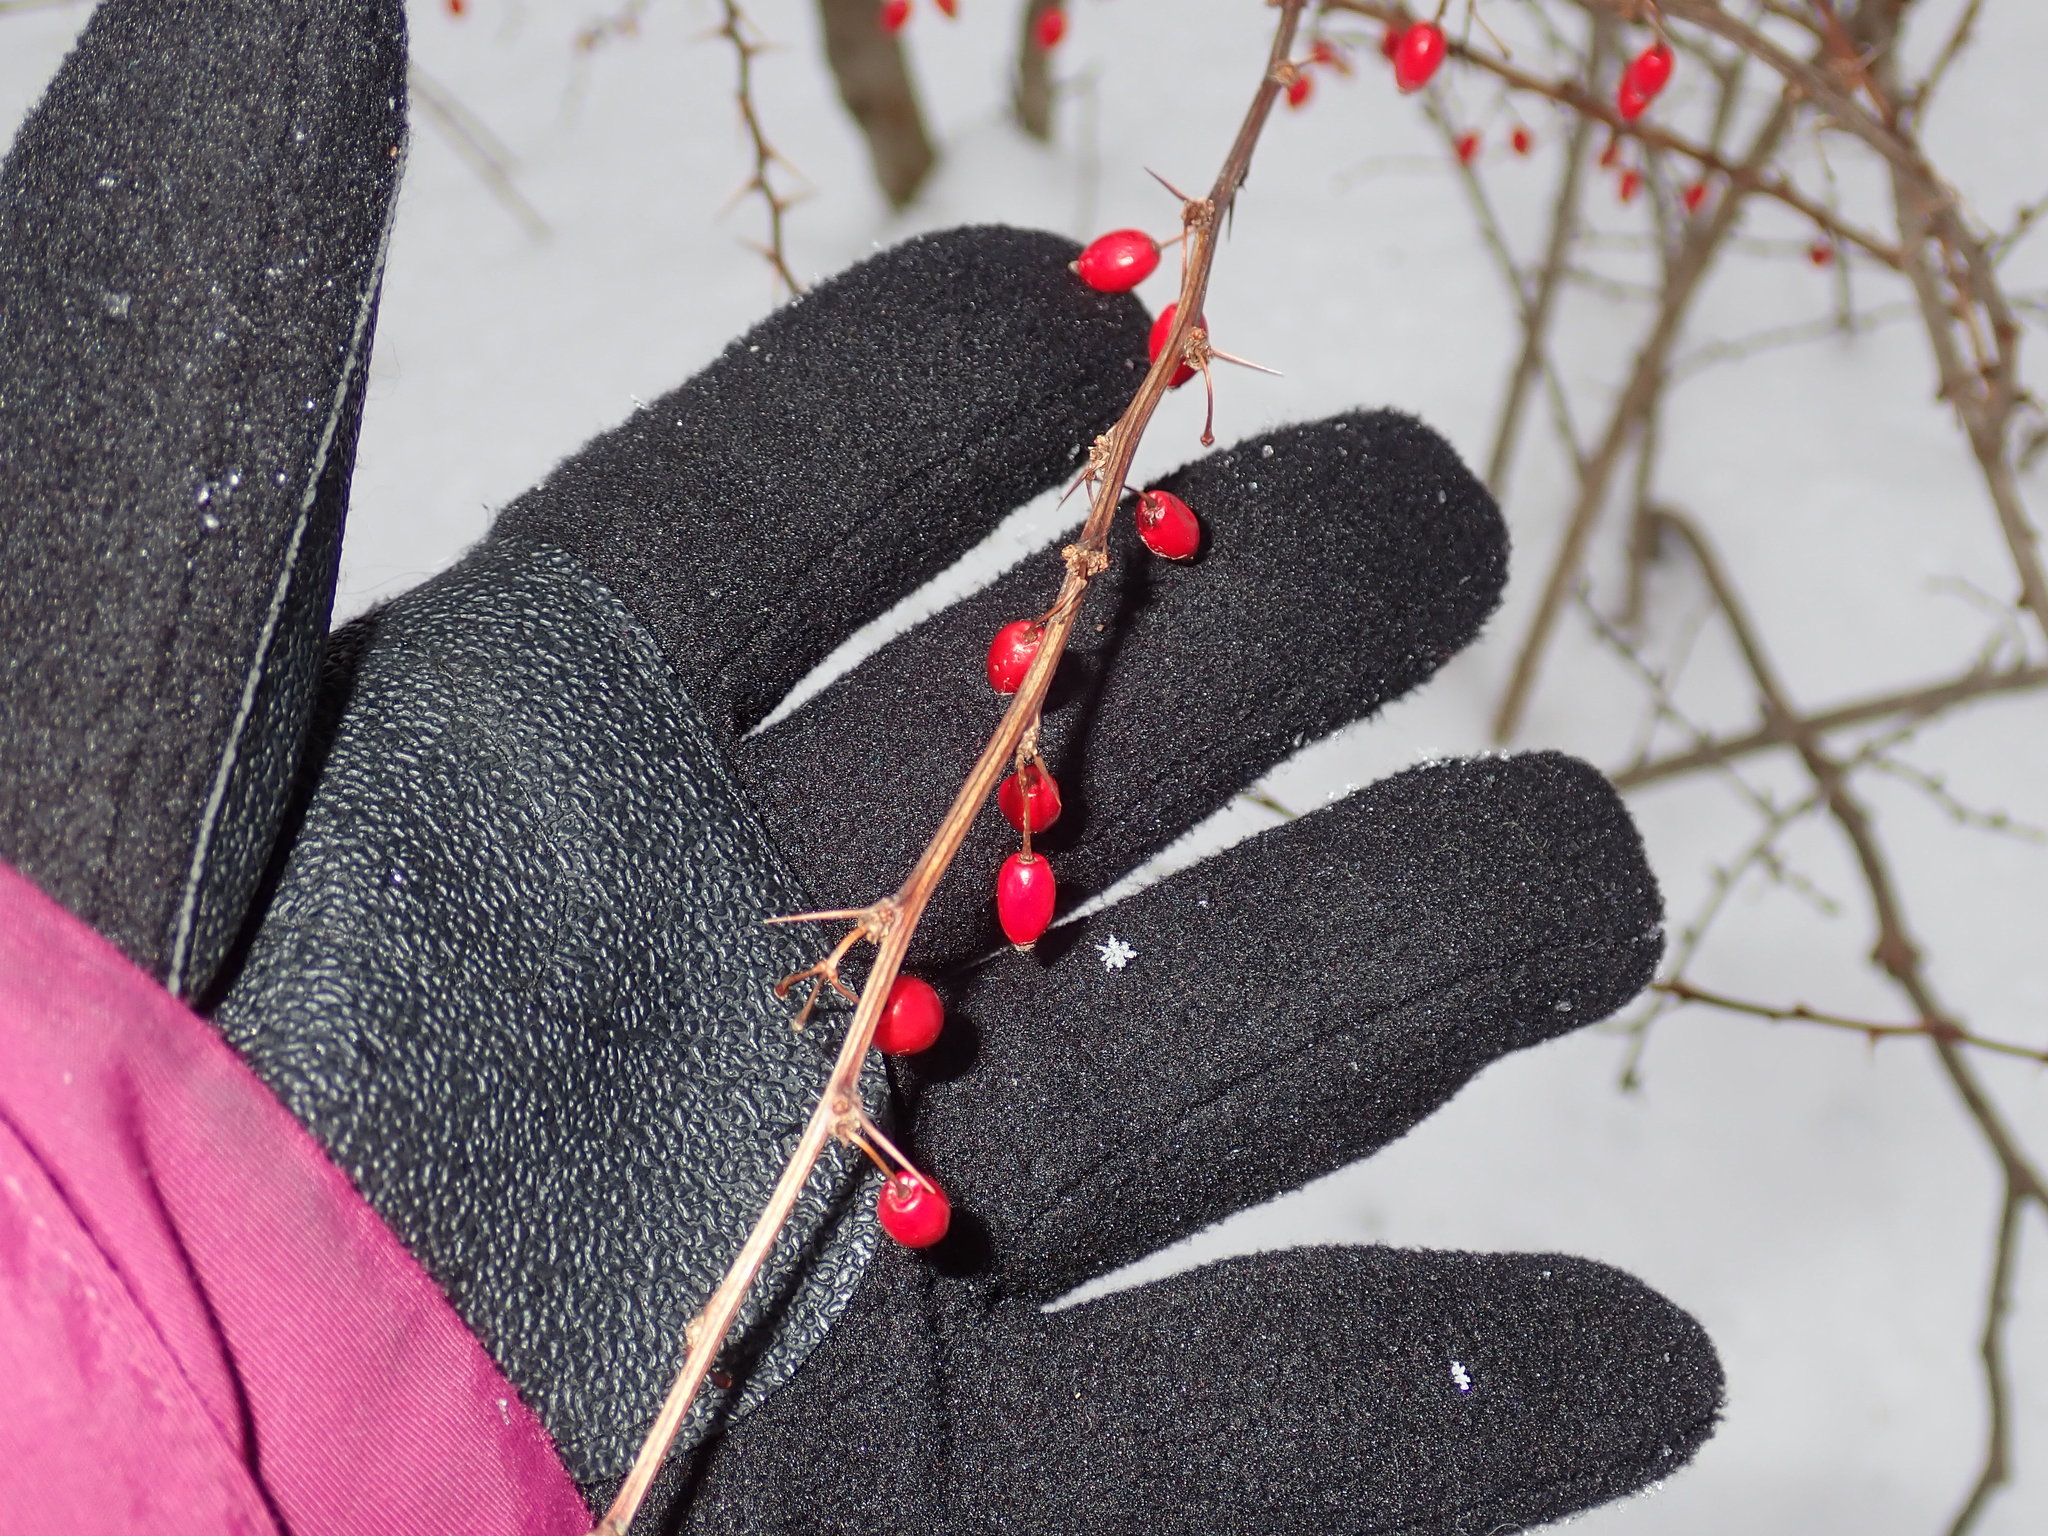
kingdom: Plantae
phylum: Tracheophyta
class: Magnoliopsida
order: Ranunculales
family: Berberidaceae
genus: Berberis
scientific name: Berberis thunbergii
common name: Japanese barberry
